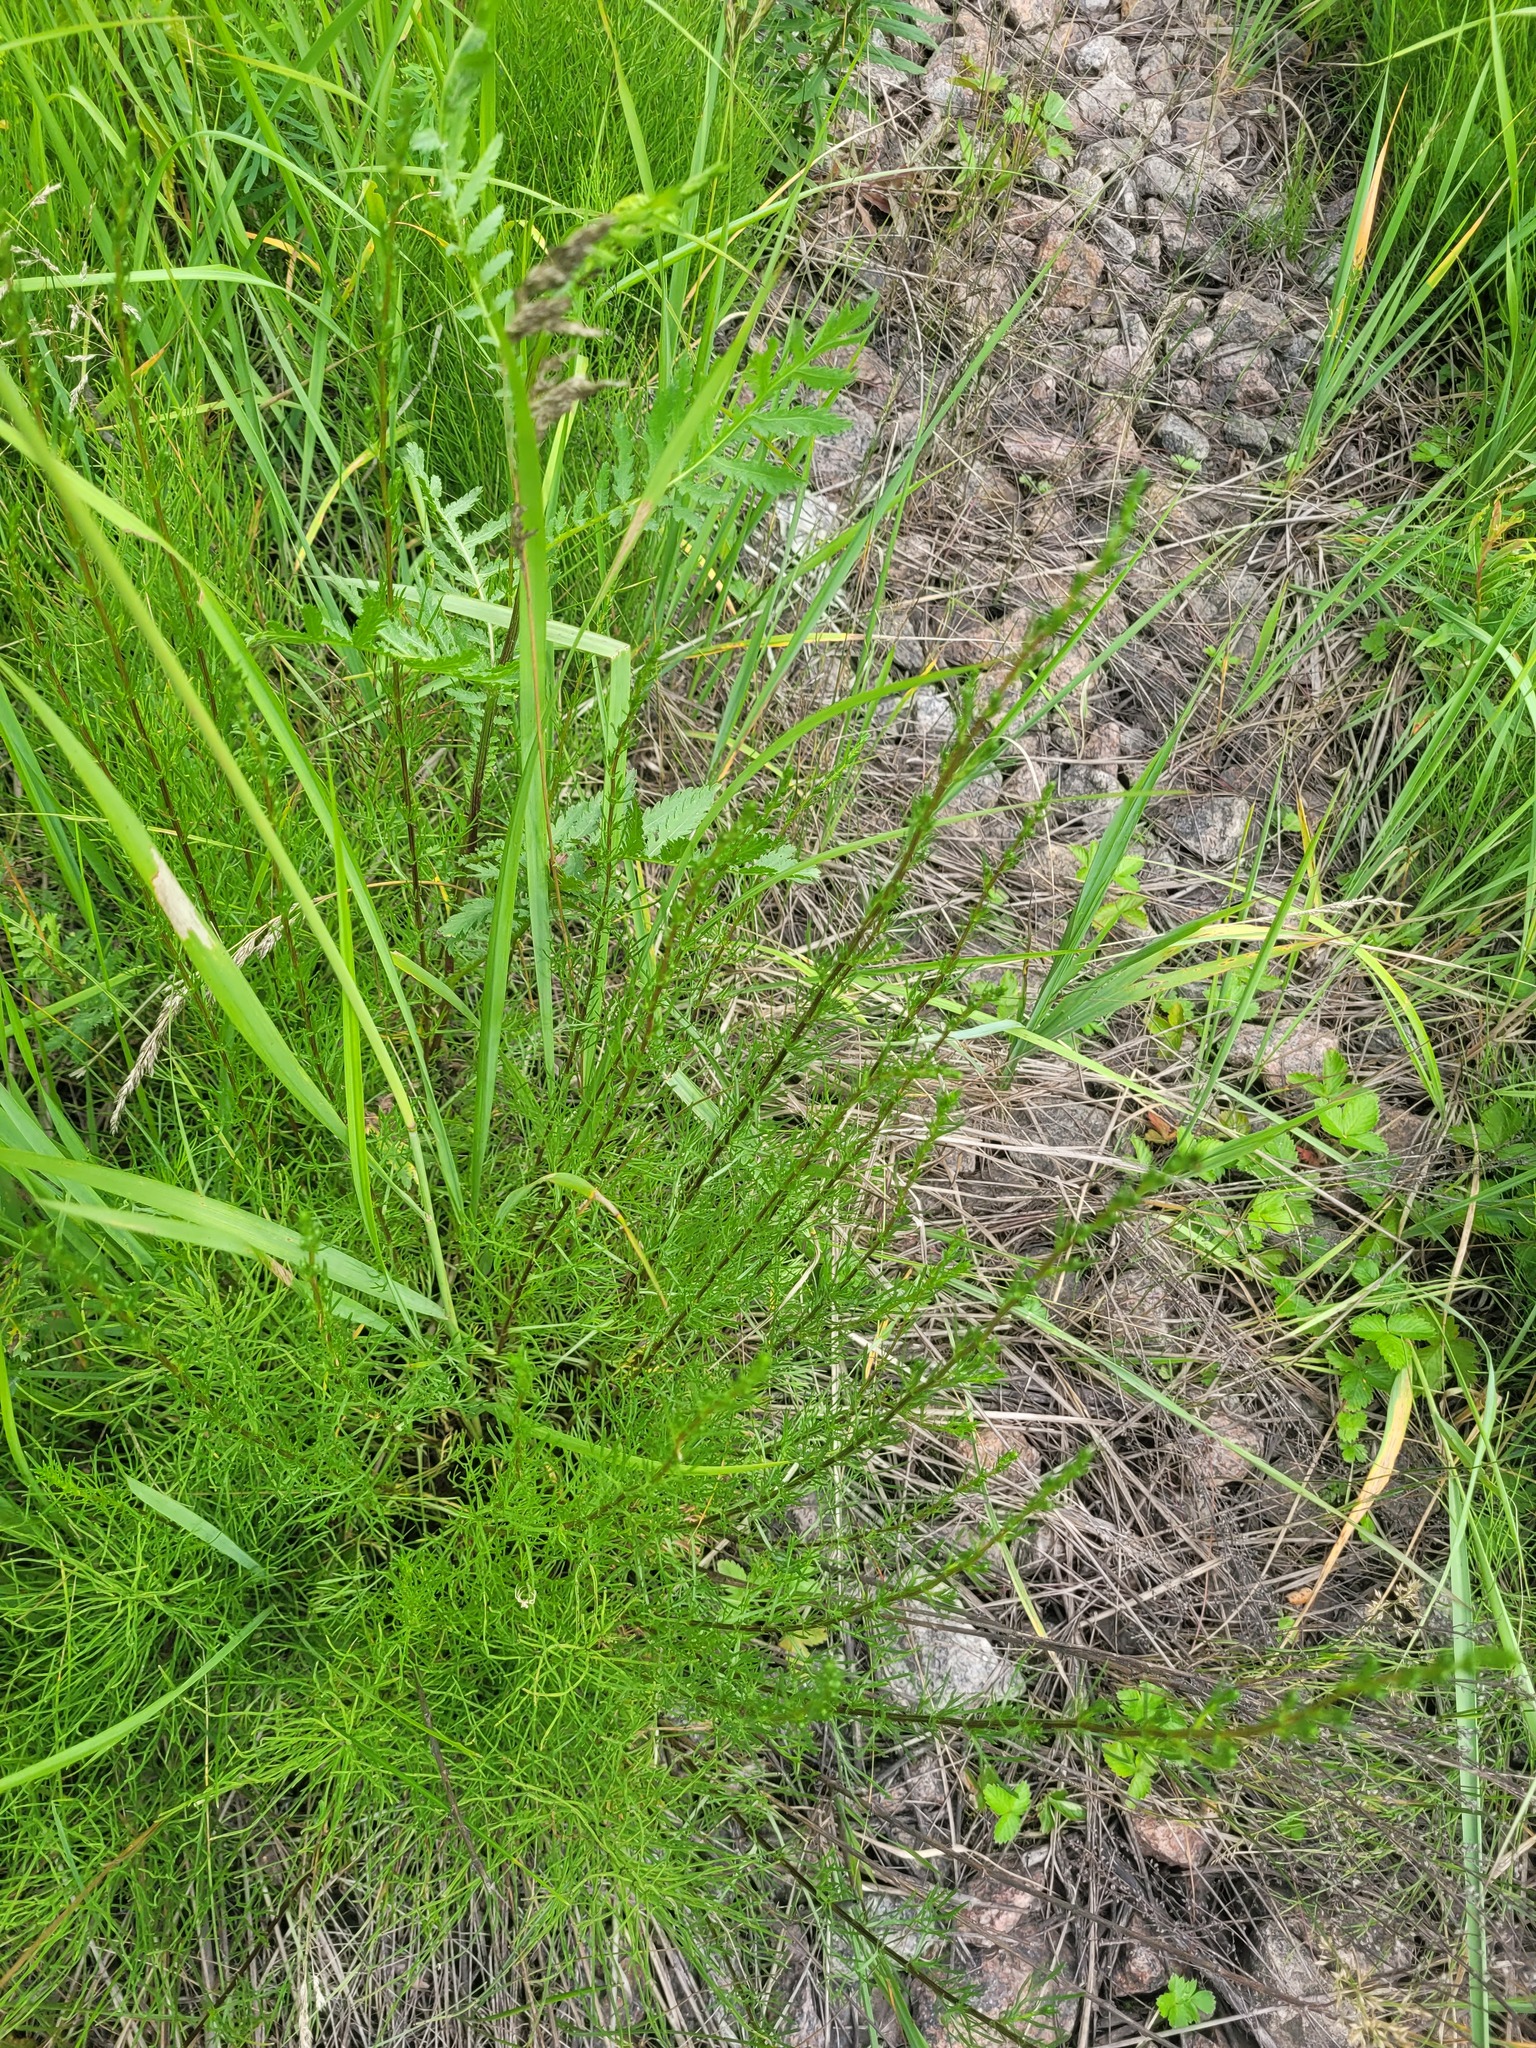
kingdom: Plantae
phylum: Tracheophyta
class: Magnoliopsida
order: Asterales
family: Asteraceae
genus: Artemisia
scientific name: Artemisia campestris
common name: Field wormwood
